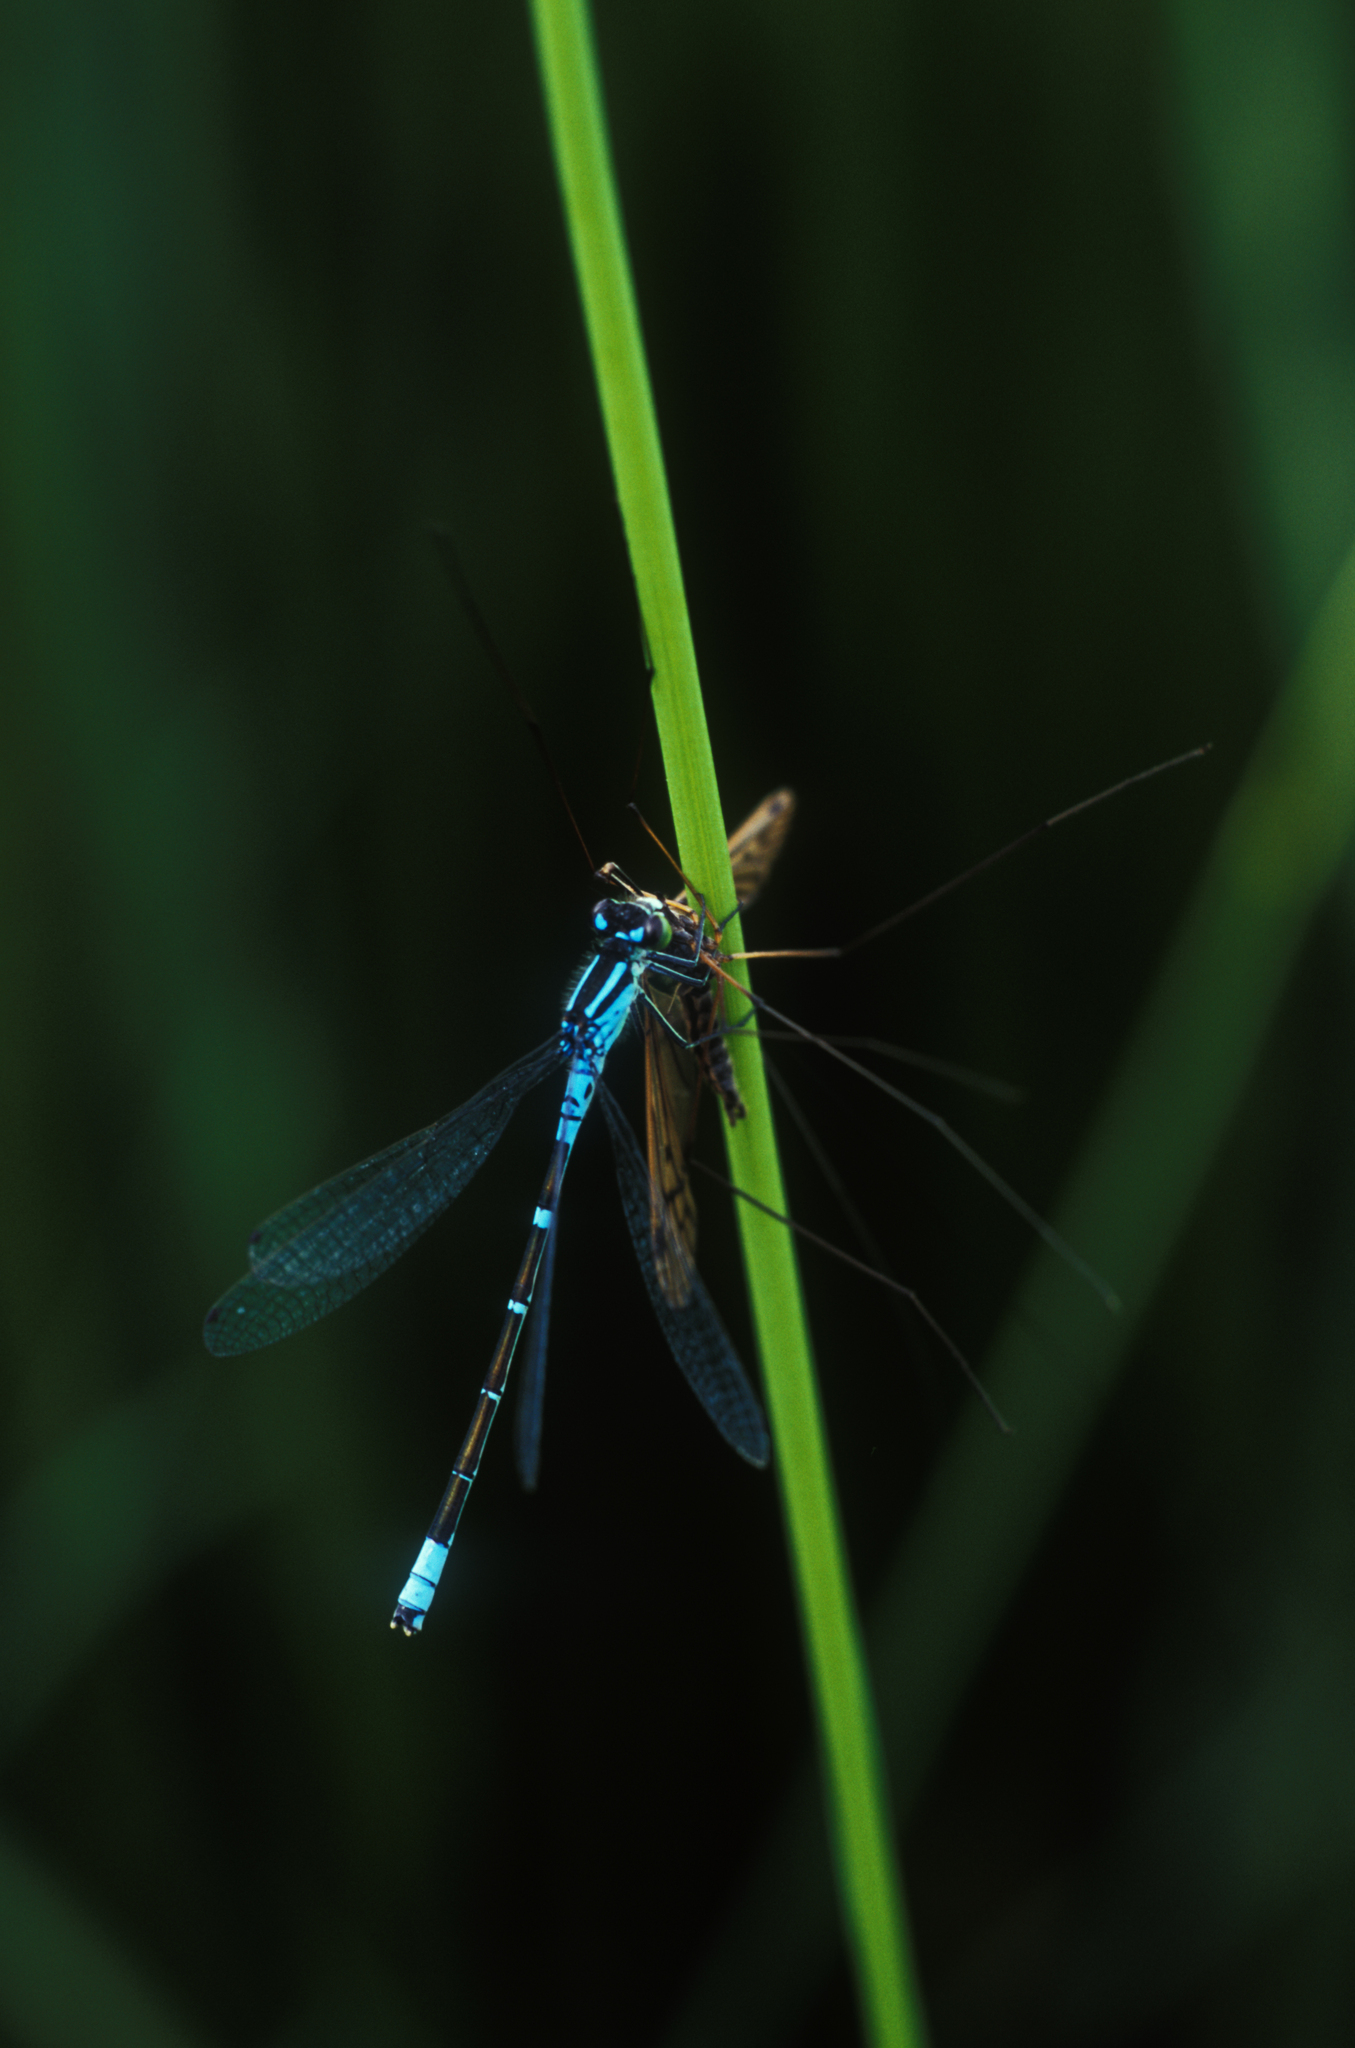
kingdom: Animalia
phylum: Arthropoda
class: Insecta
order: Odonata
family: Coenagrionidae
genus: Coenagrion
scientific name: Coenagrion lunulatum
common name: Irish damselfly
